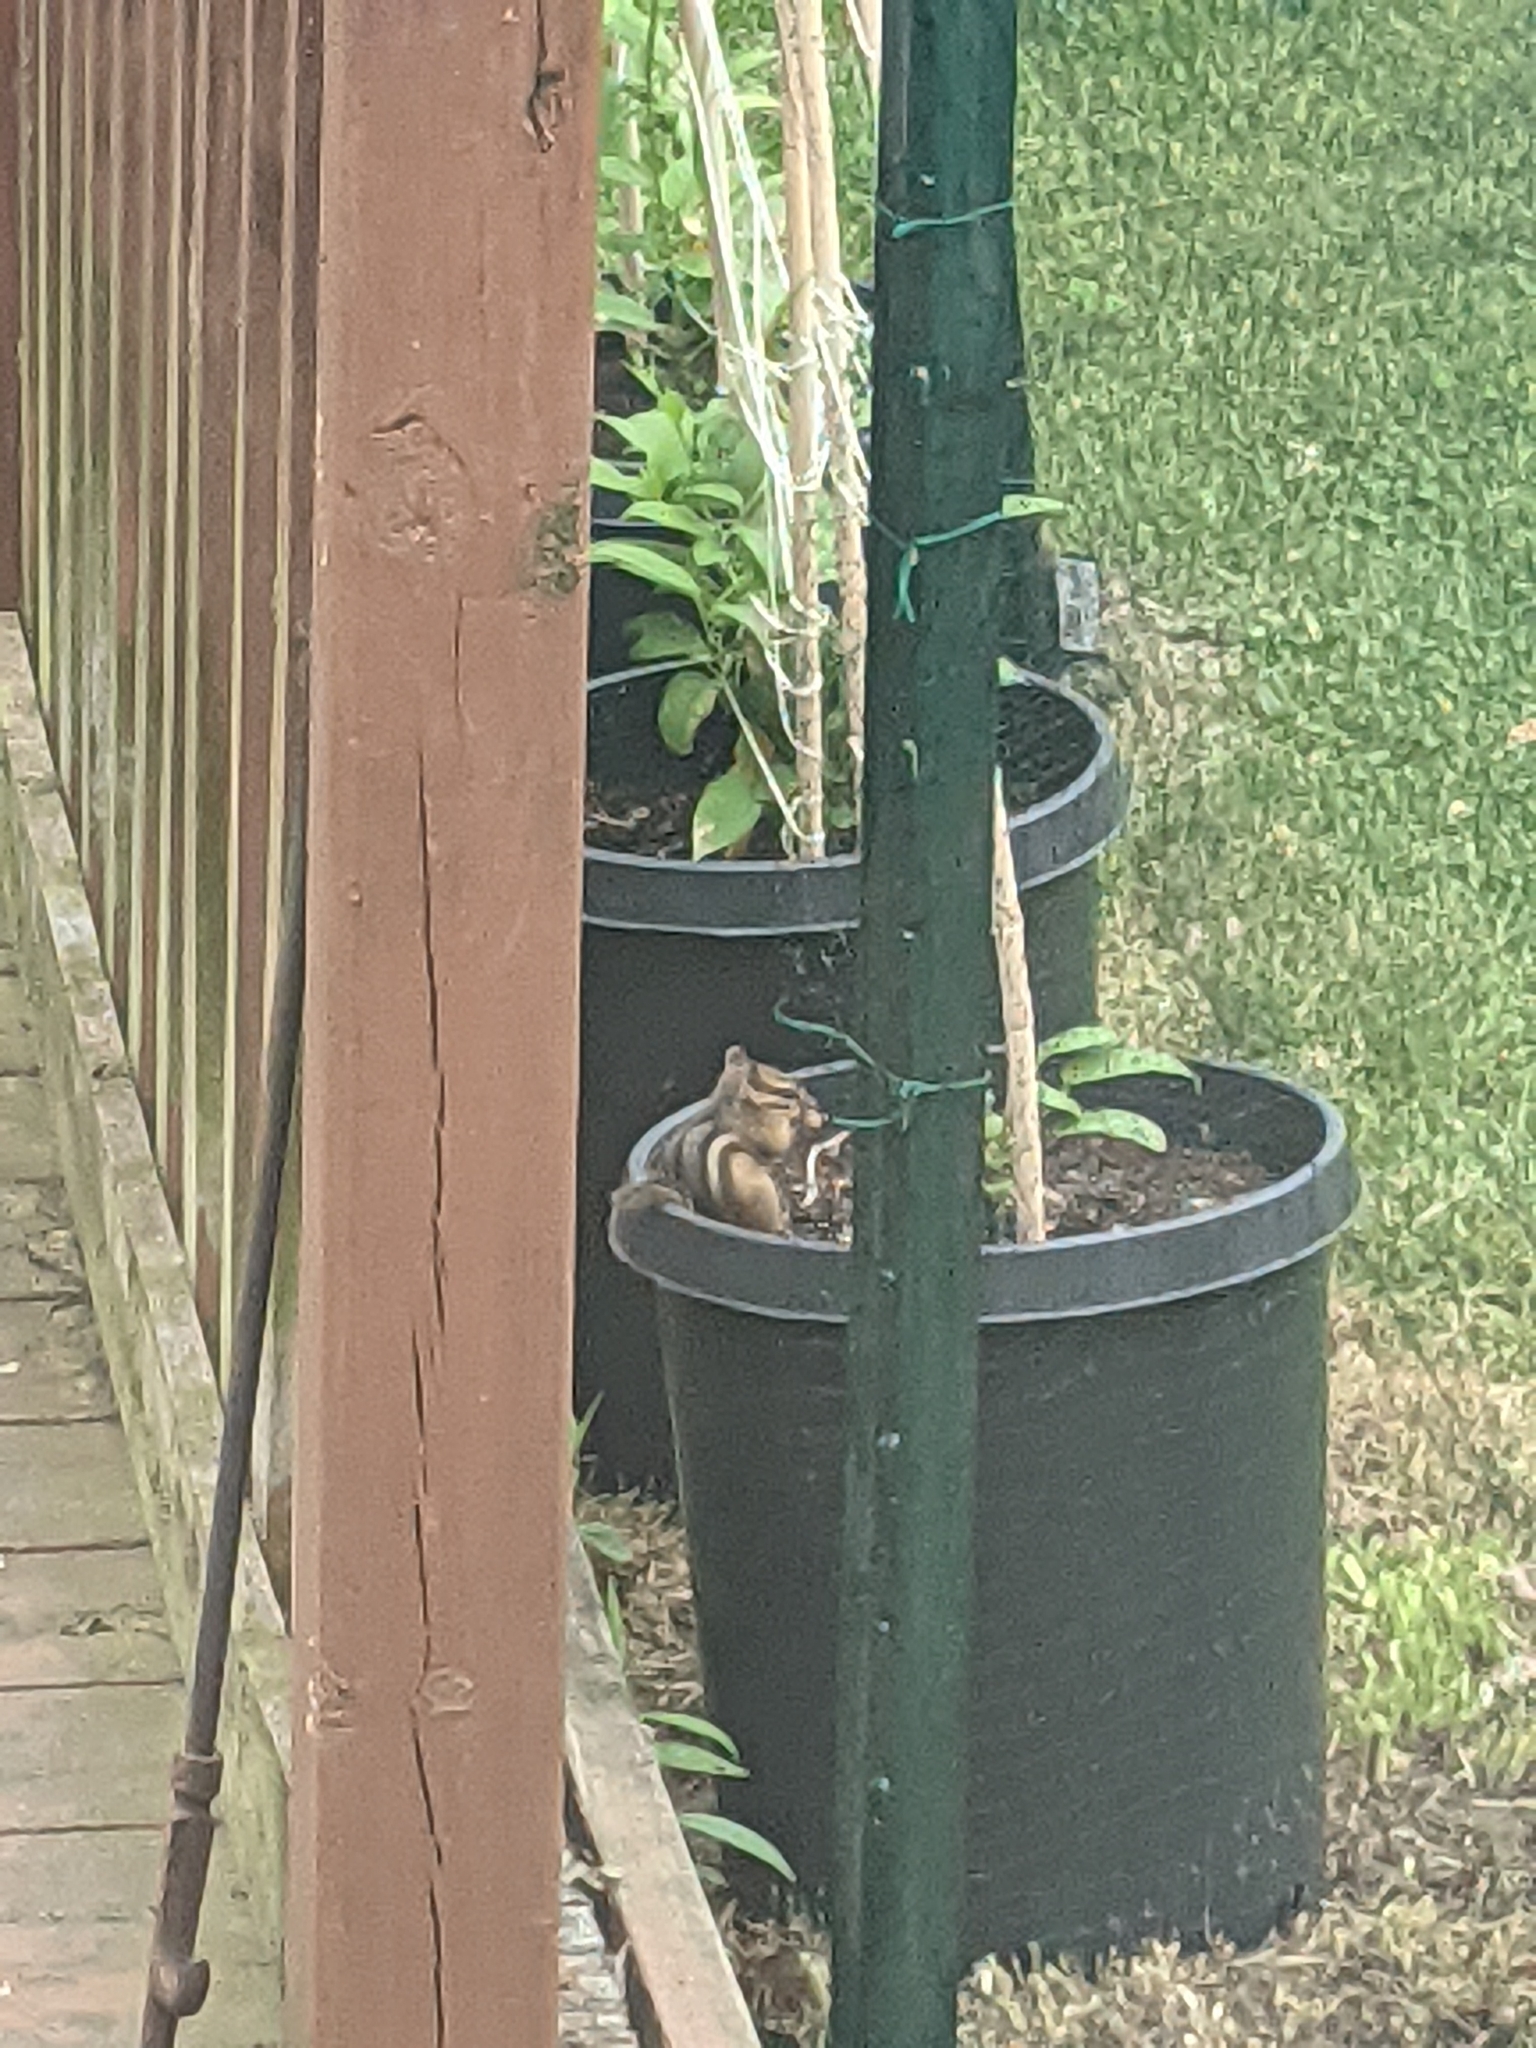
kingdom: Animalia
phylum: Chordata
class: Mammalia
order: Rodentia
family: Sciuridae
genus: Tamias
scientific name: Tamias striatus
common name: Eastern chipmunk
